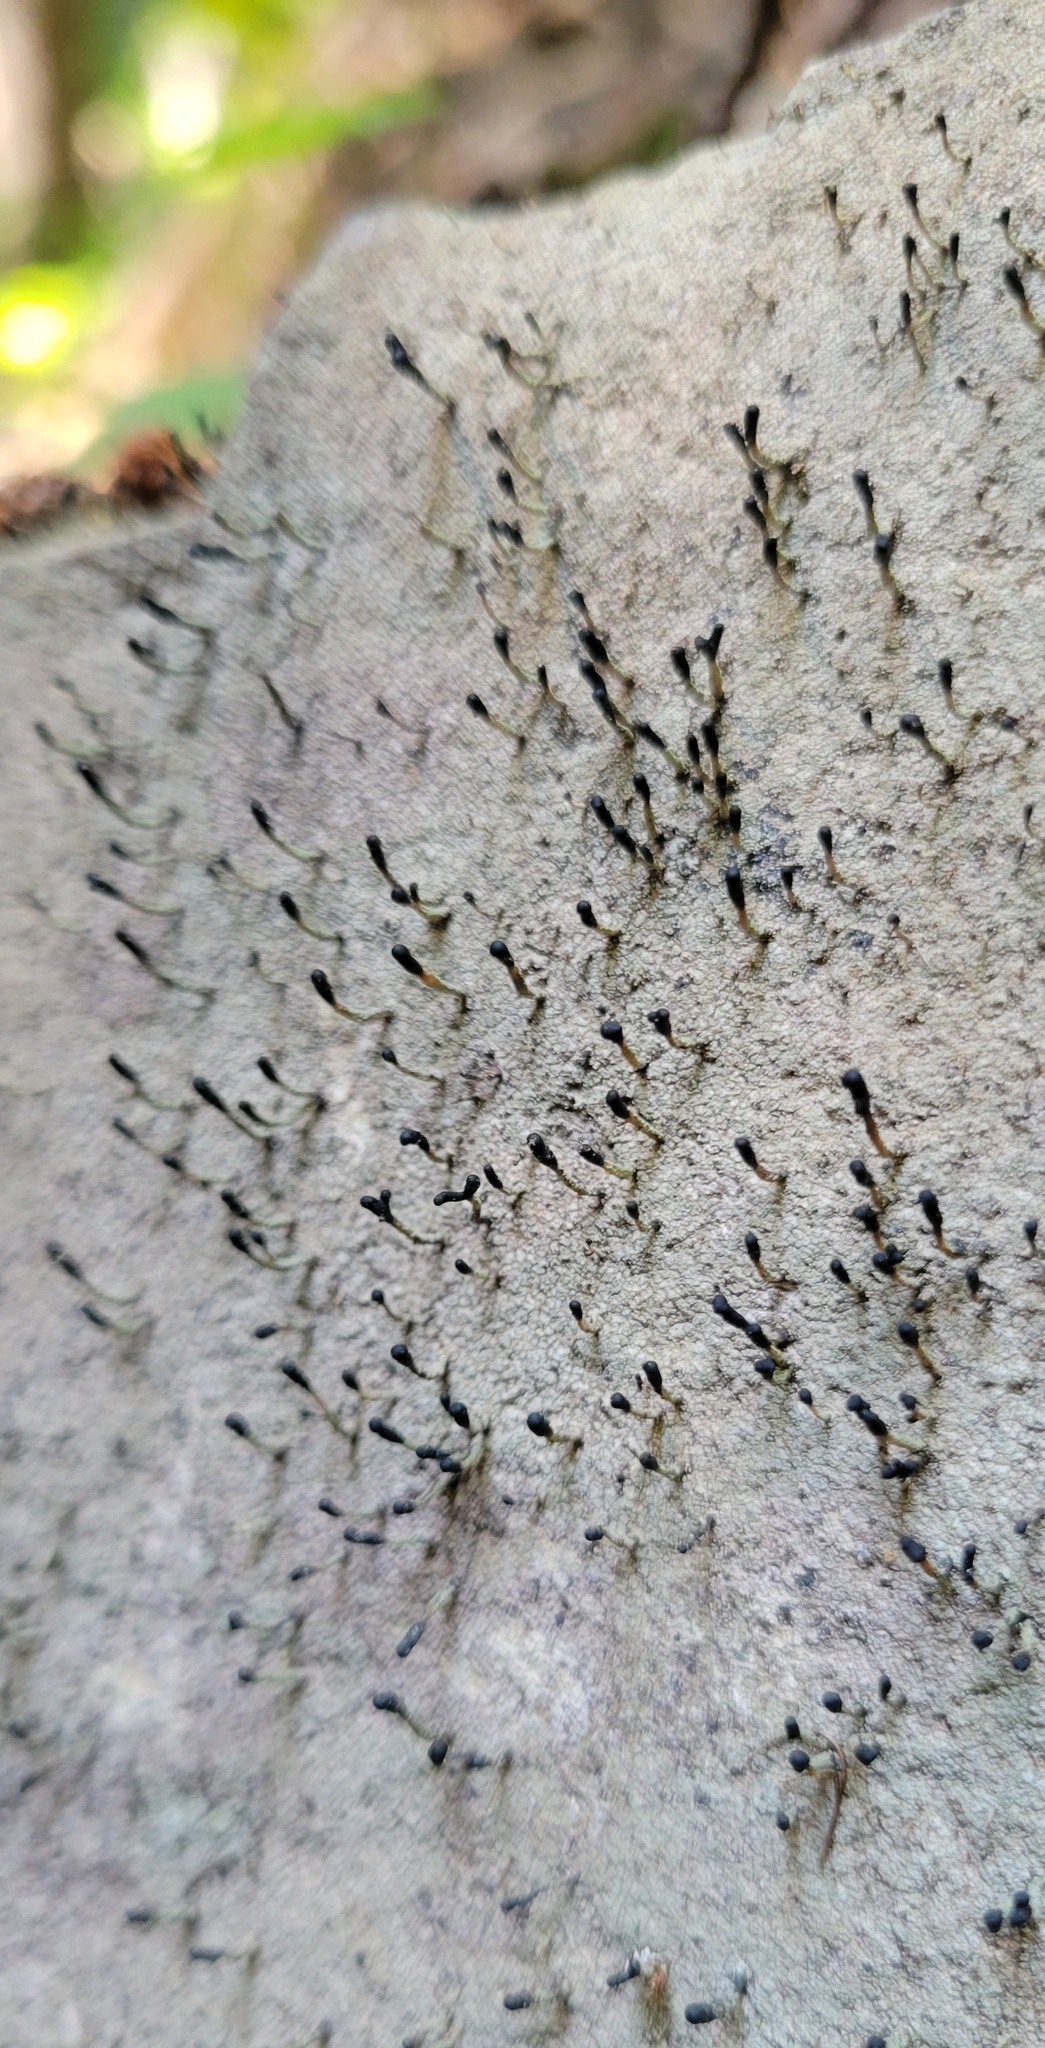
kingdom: Fungi
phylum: Ascomycota
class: Lecanoromycetes
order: Lecanorales
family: Cladoniaceae
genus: Pilophorus
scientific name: Pilophorus clavatus
